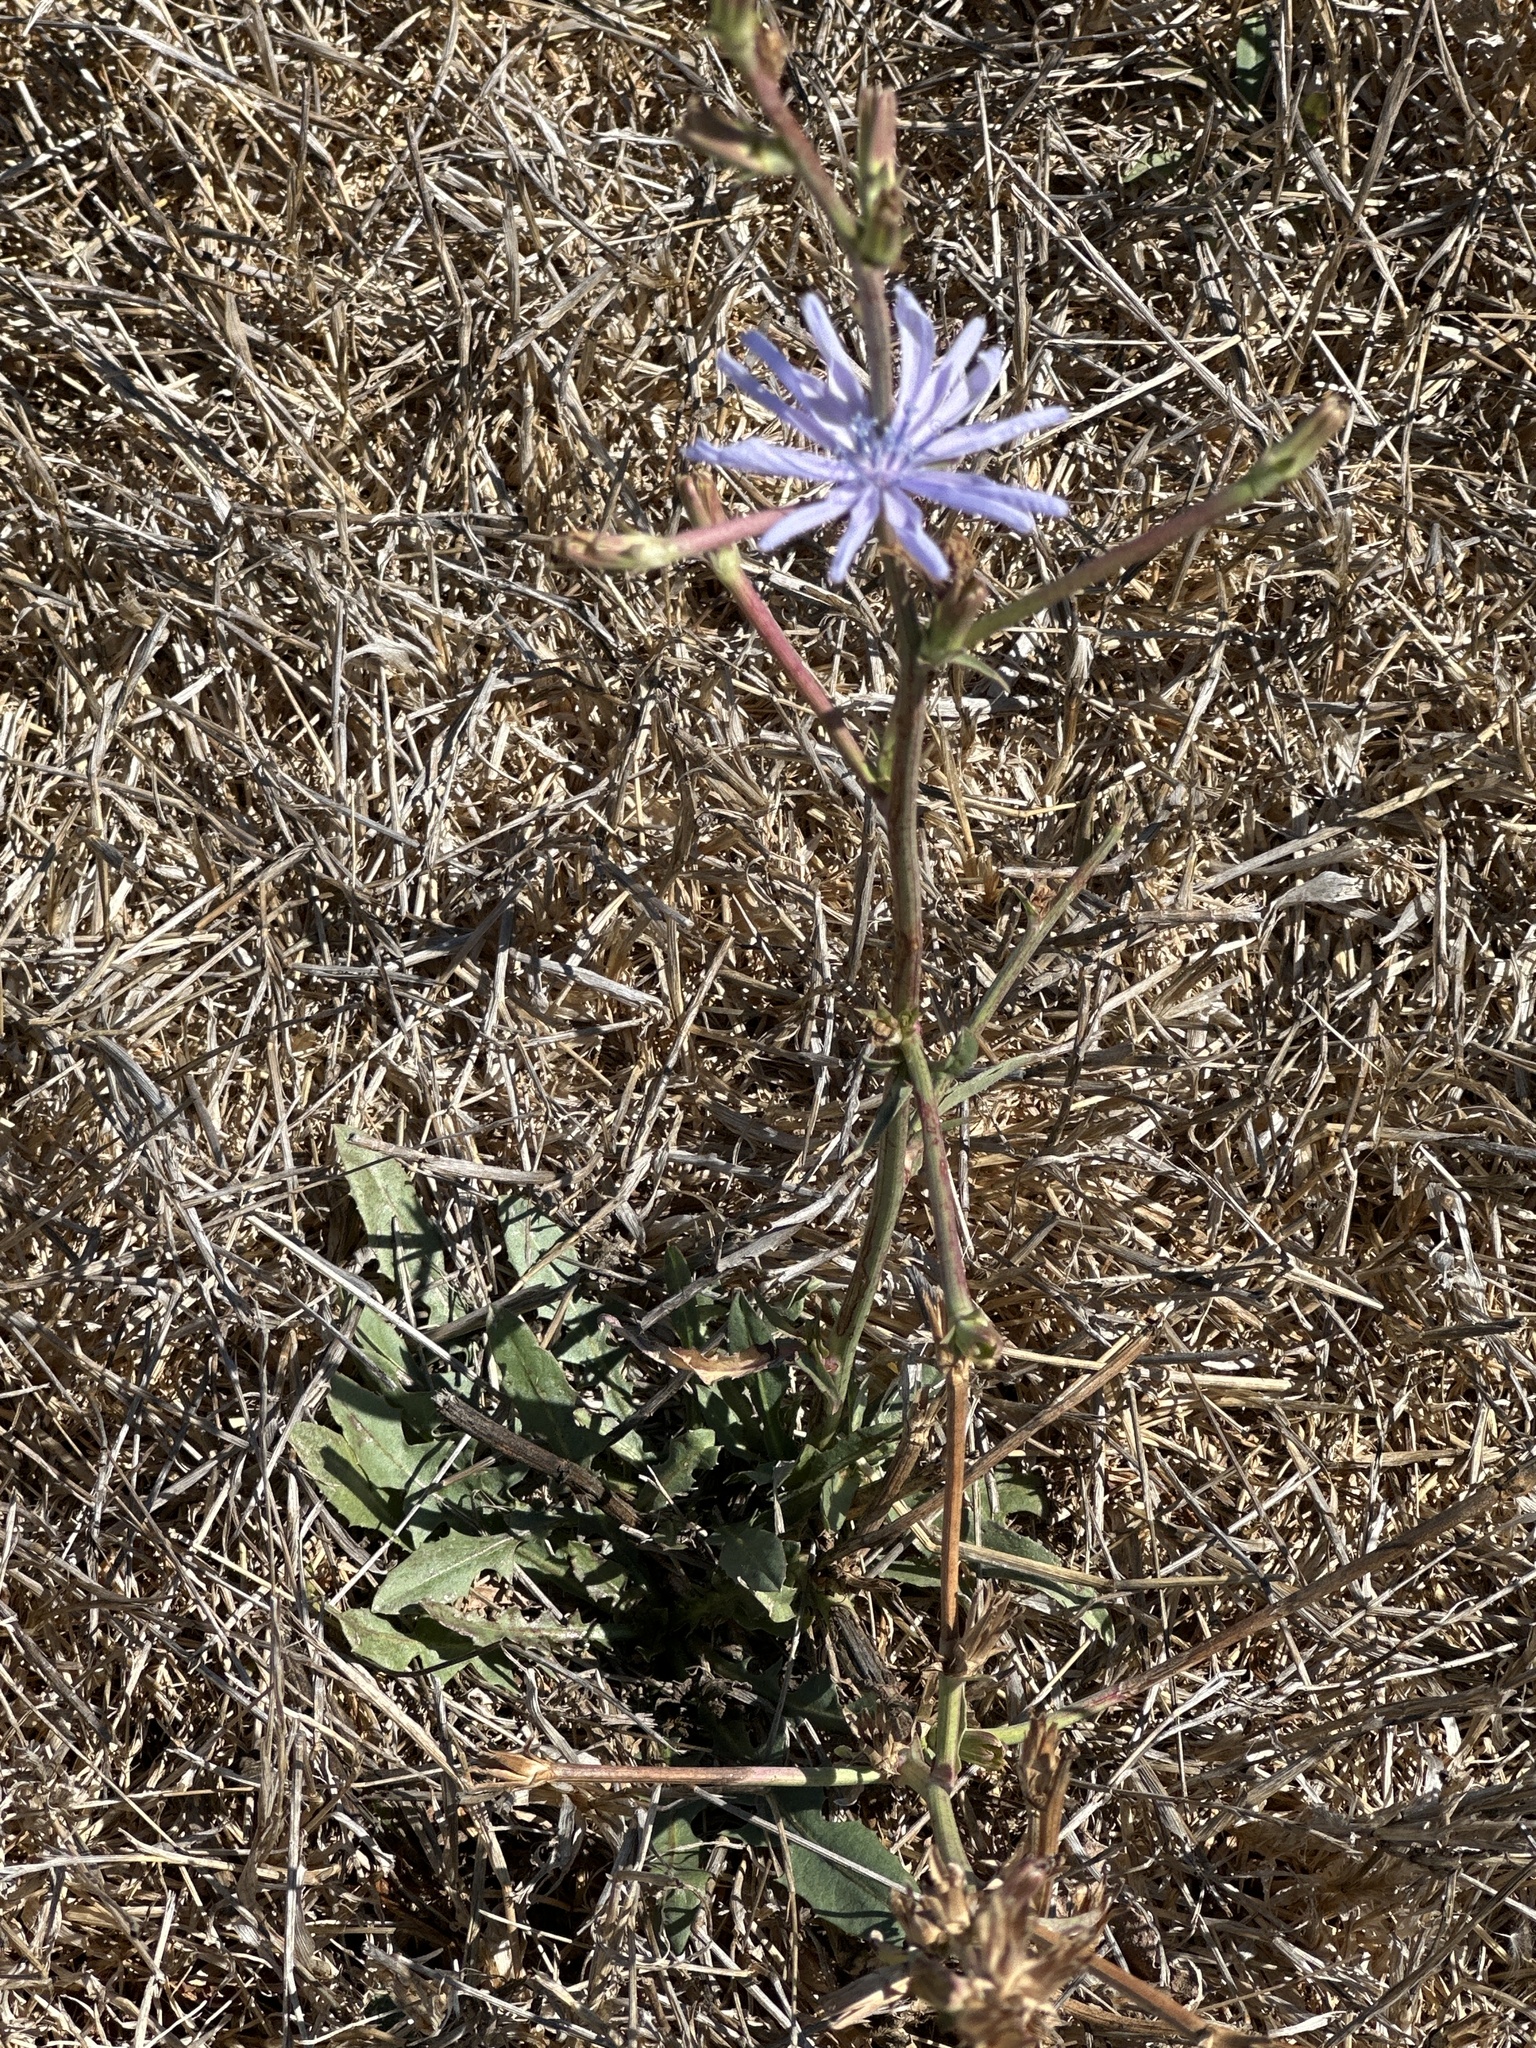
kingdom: Plantae
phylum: Tracheophyta
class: Magnoliopsida
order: Asterales
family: Asteraceae
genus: Cichorium
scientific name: Cichorium intybus
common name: Chicory
